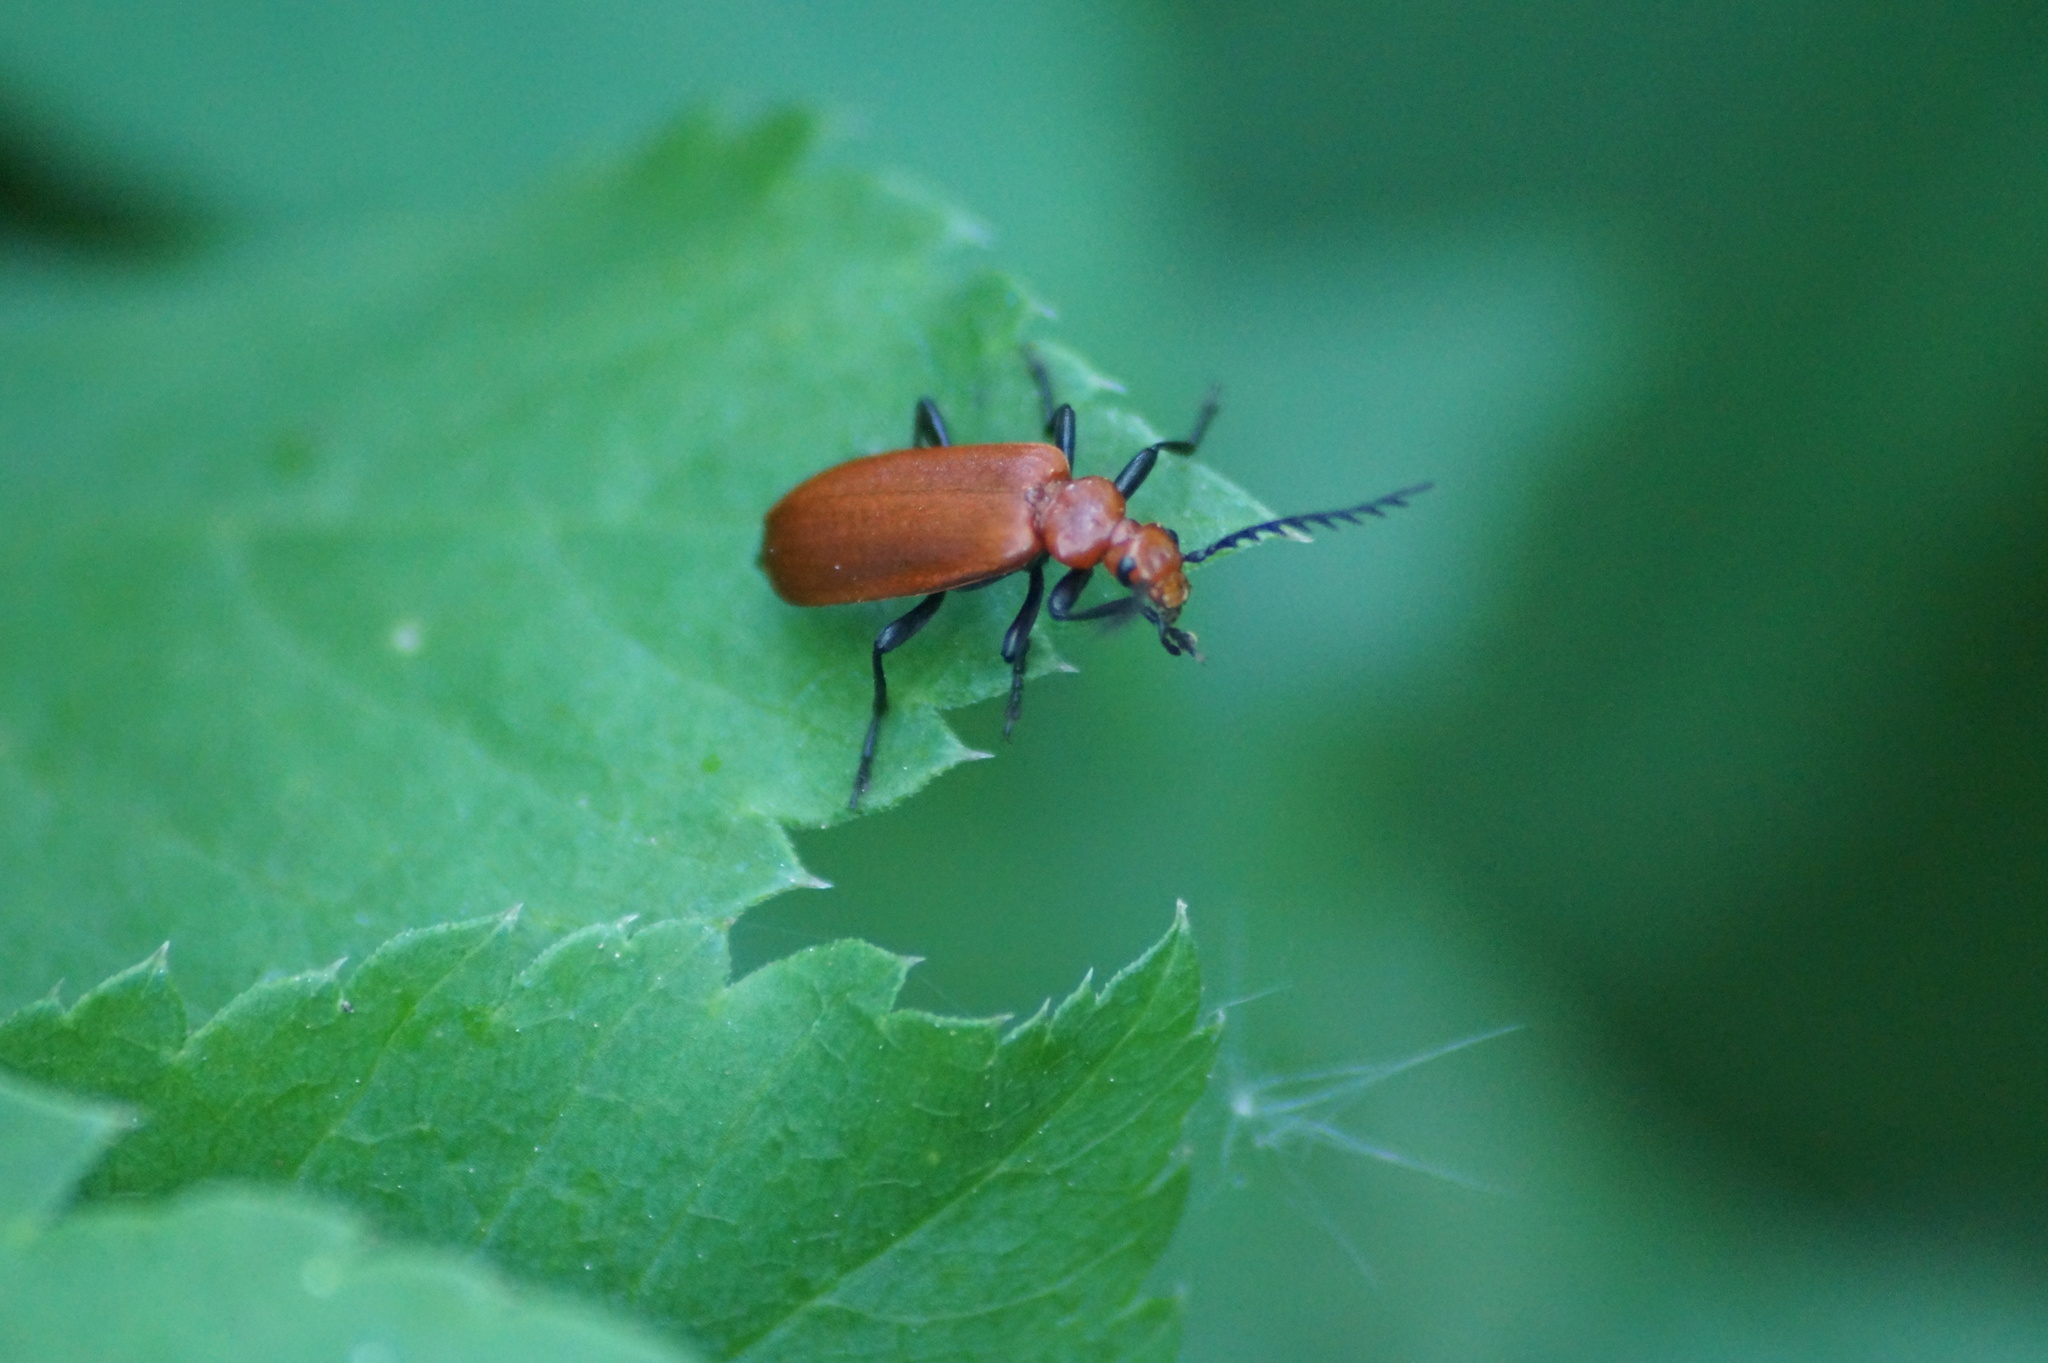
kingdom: Animalia
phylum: Arthropoda
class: Insecta
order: Coleoptera
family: Pyrochroidae
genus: Pyrochroa
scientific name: Pyrochroa serraticornis
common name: Red-headed cardinal beetle
